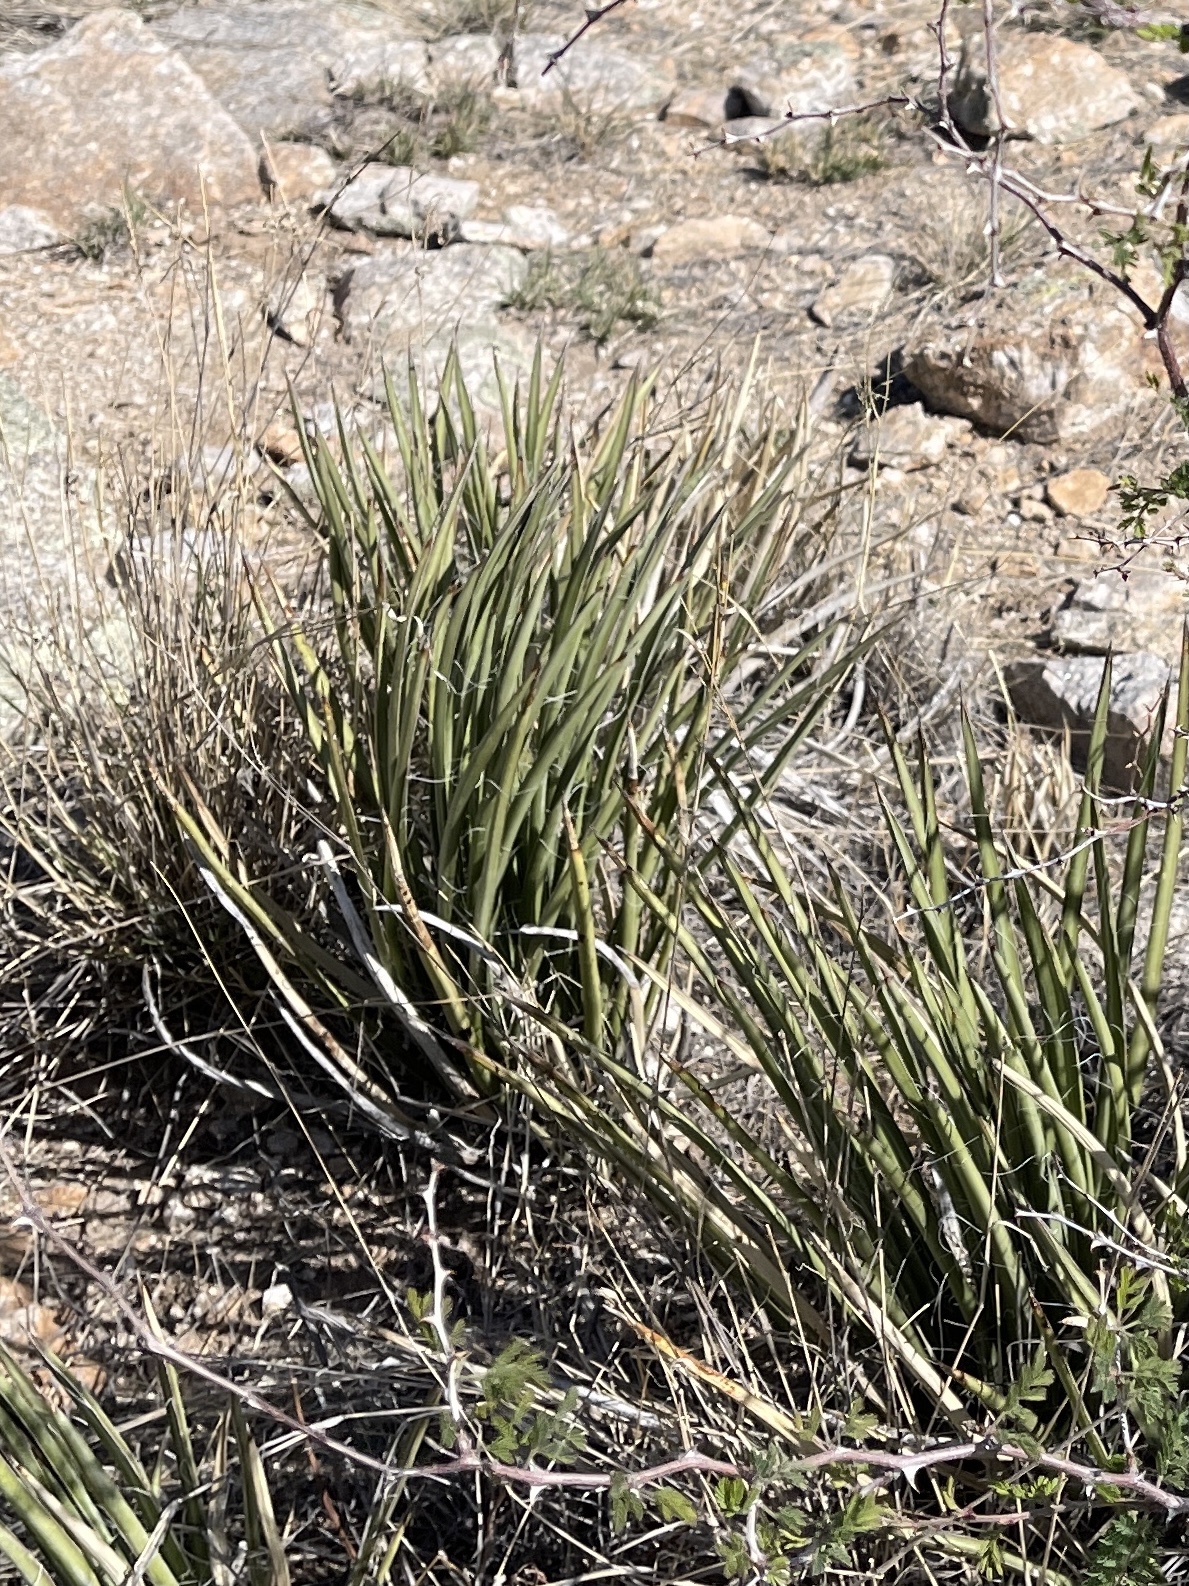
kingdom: Plantae
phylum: Tracheophyta
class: Liliopsida
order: Asparagales
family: Asparagaceae
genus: Agave
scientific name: Agave schottii
